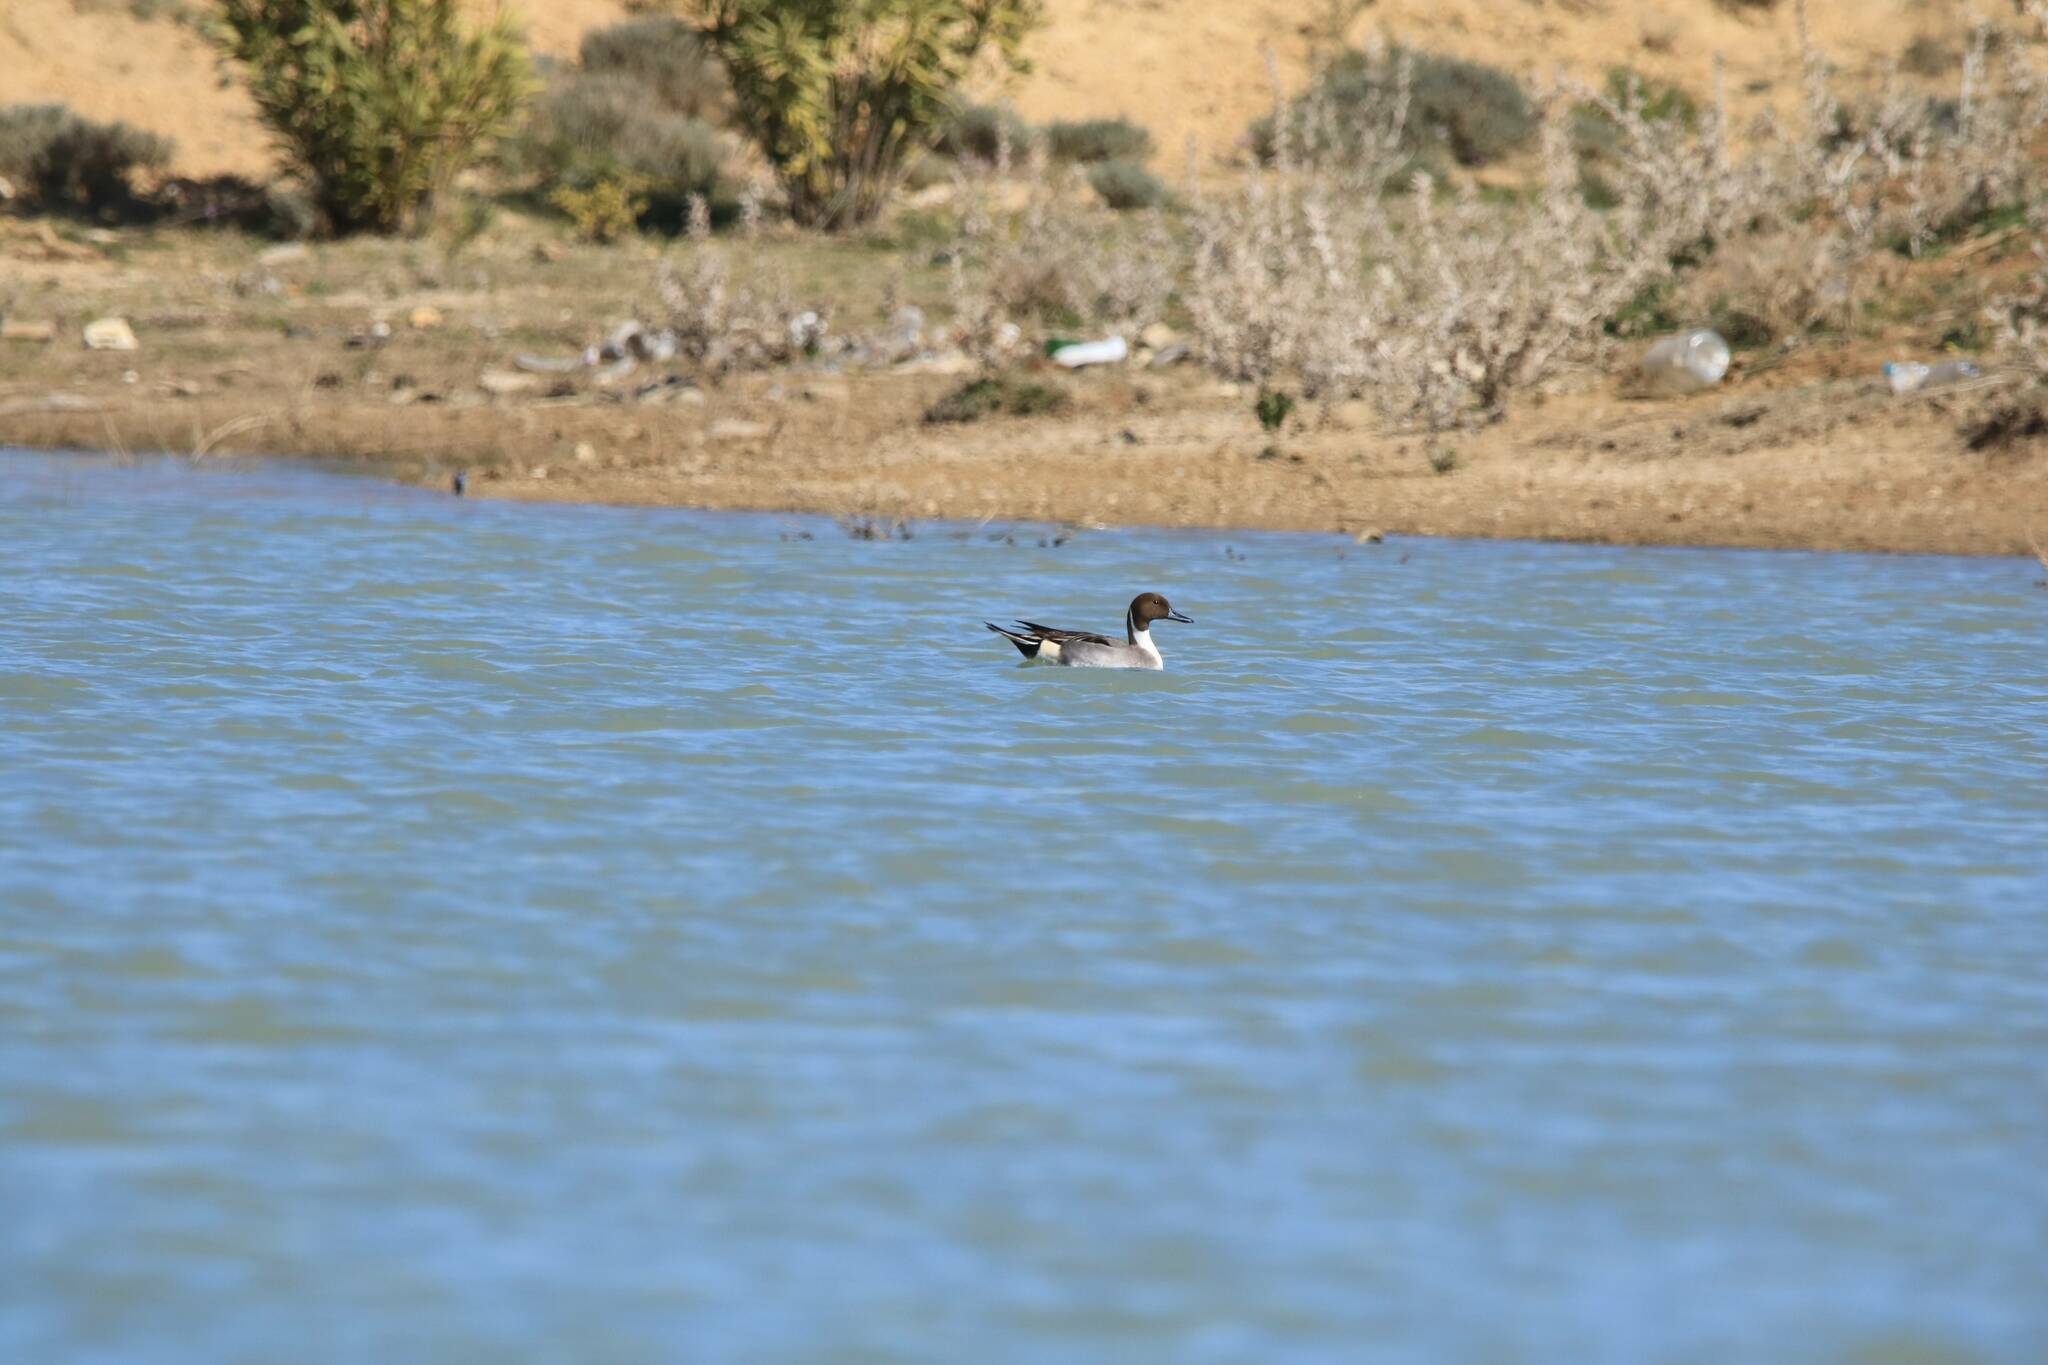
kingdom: Animalia
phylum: Chordata
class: Aves
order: Anseriformes
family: Anatidae
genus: Anas
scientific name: Anas acuta
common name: Northern pintail
